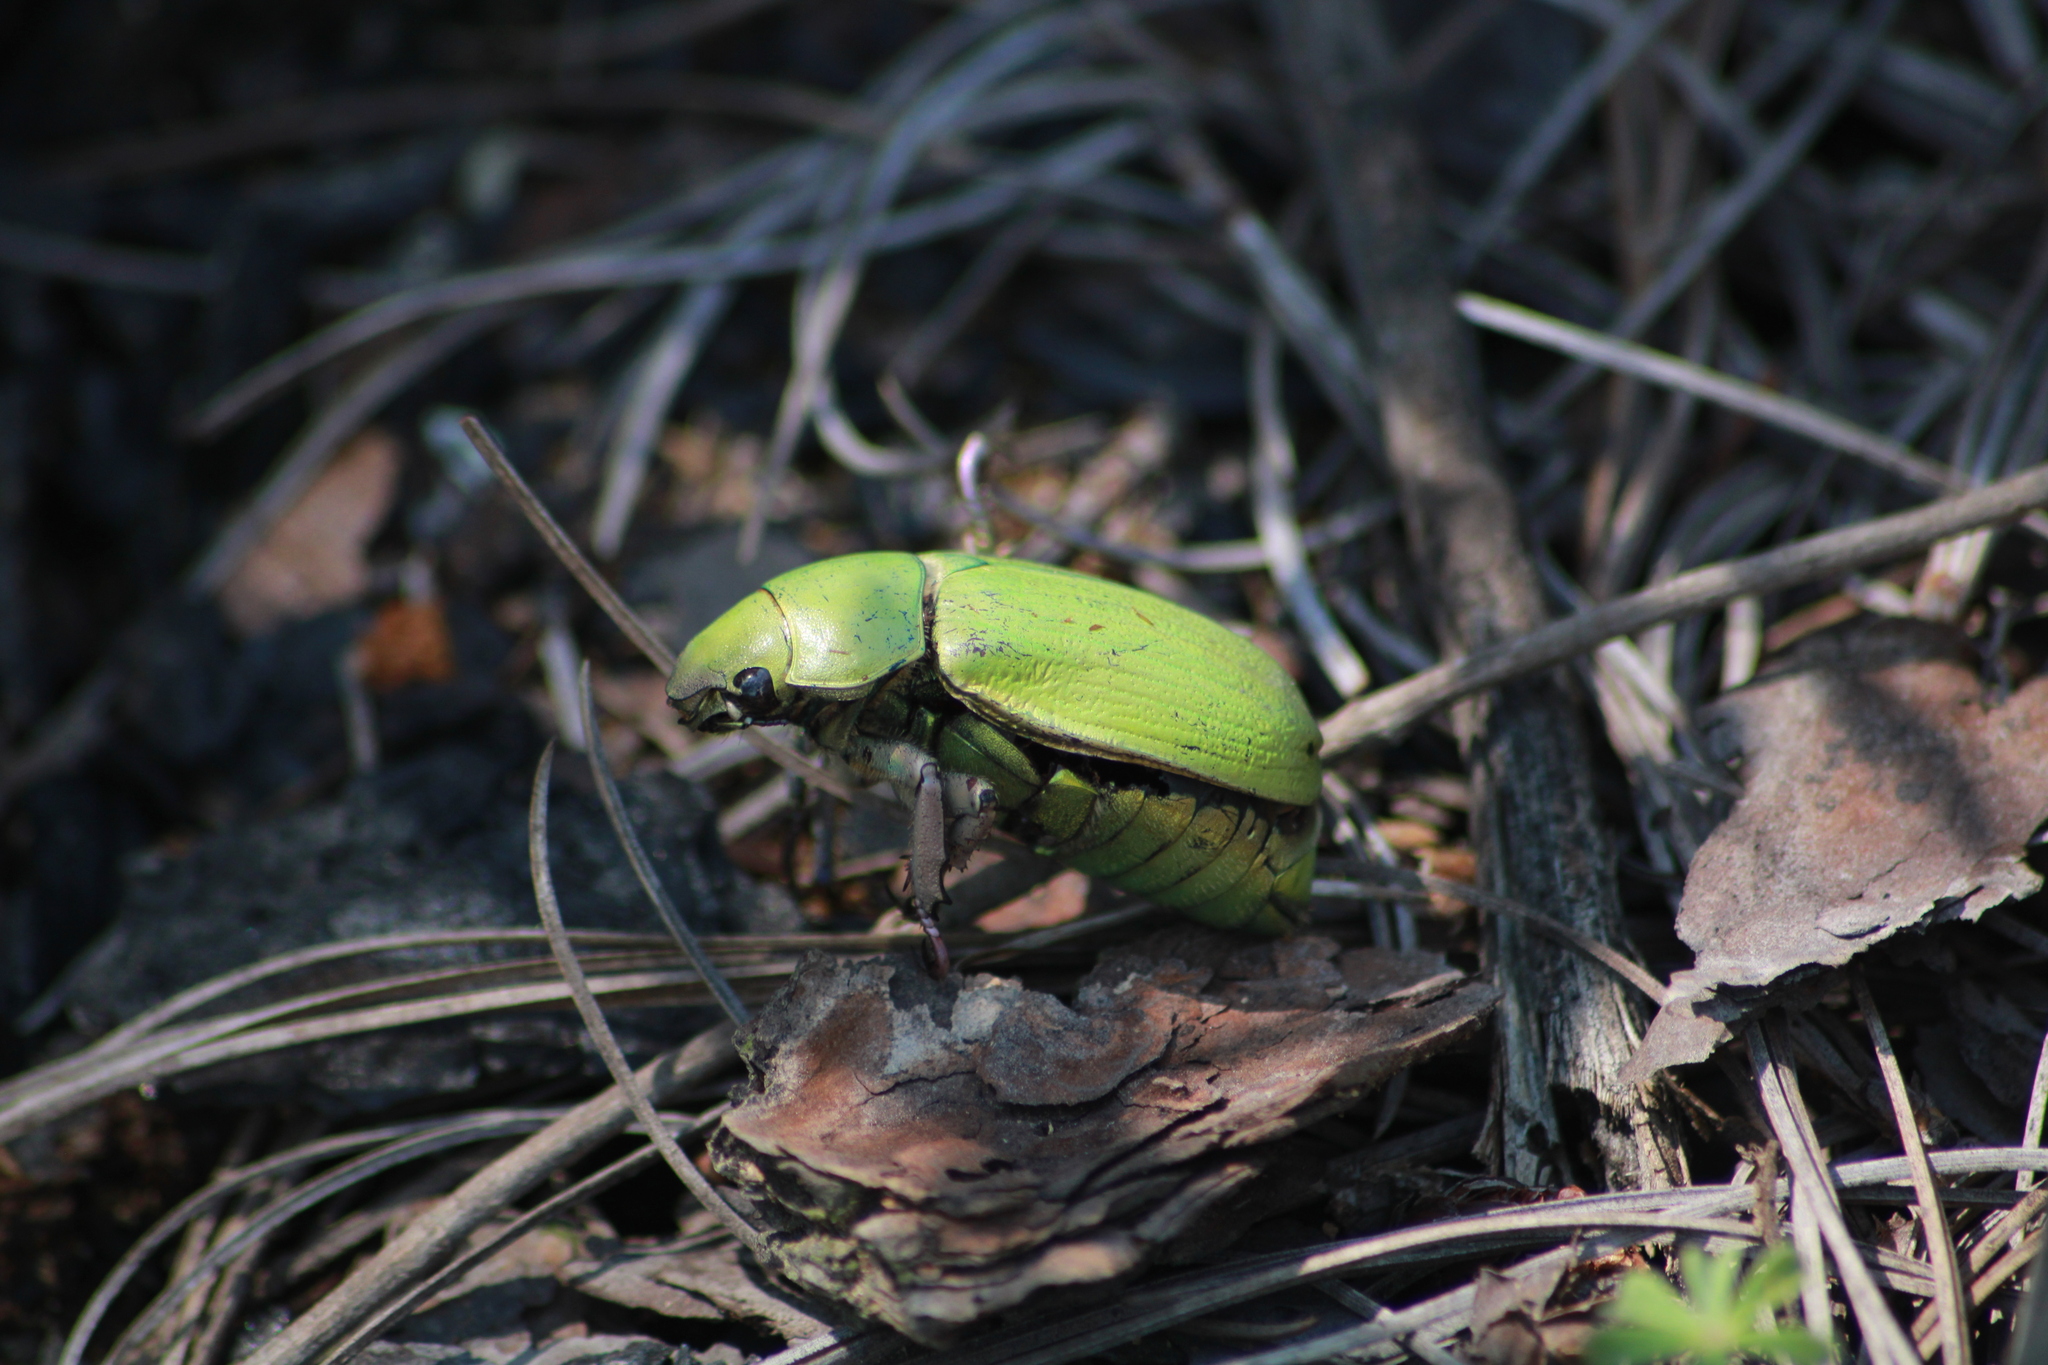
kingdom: Animalia
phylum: Arthropoda
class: Insecta
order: Coleoptera
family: Scarabaeidae
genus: Chrysina
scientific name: Chrysina nogueirai
